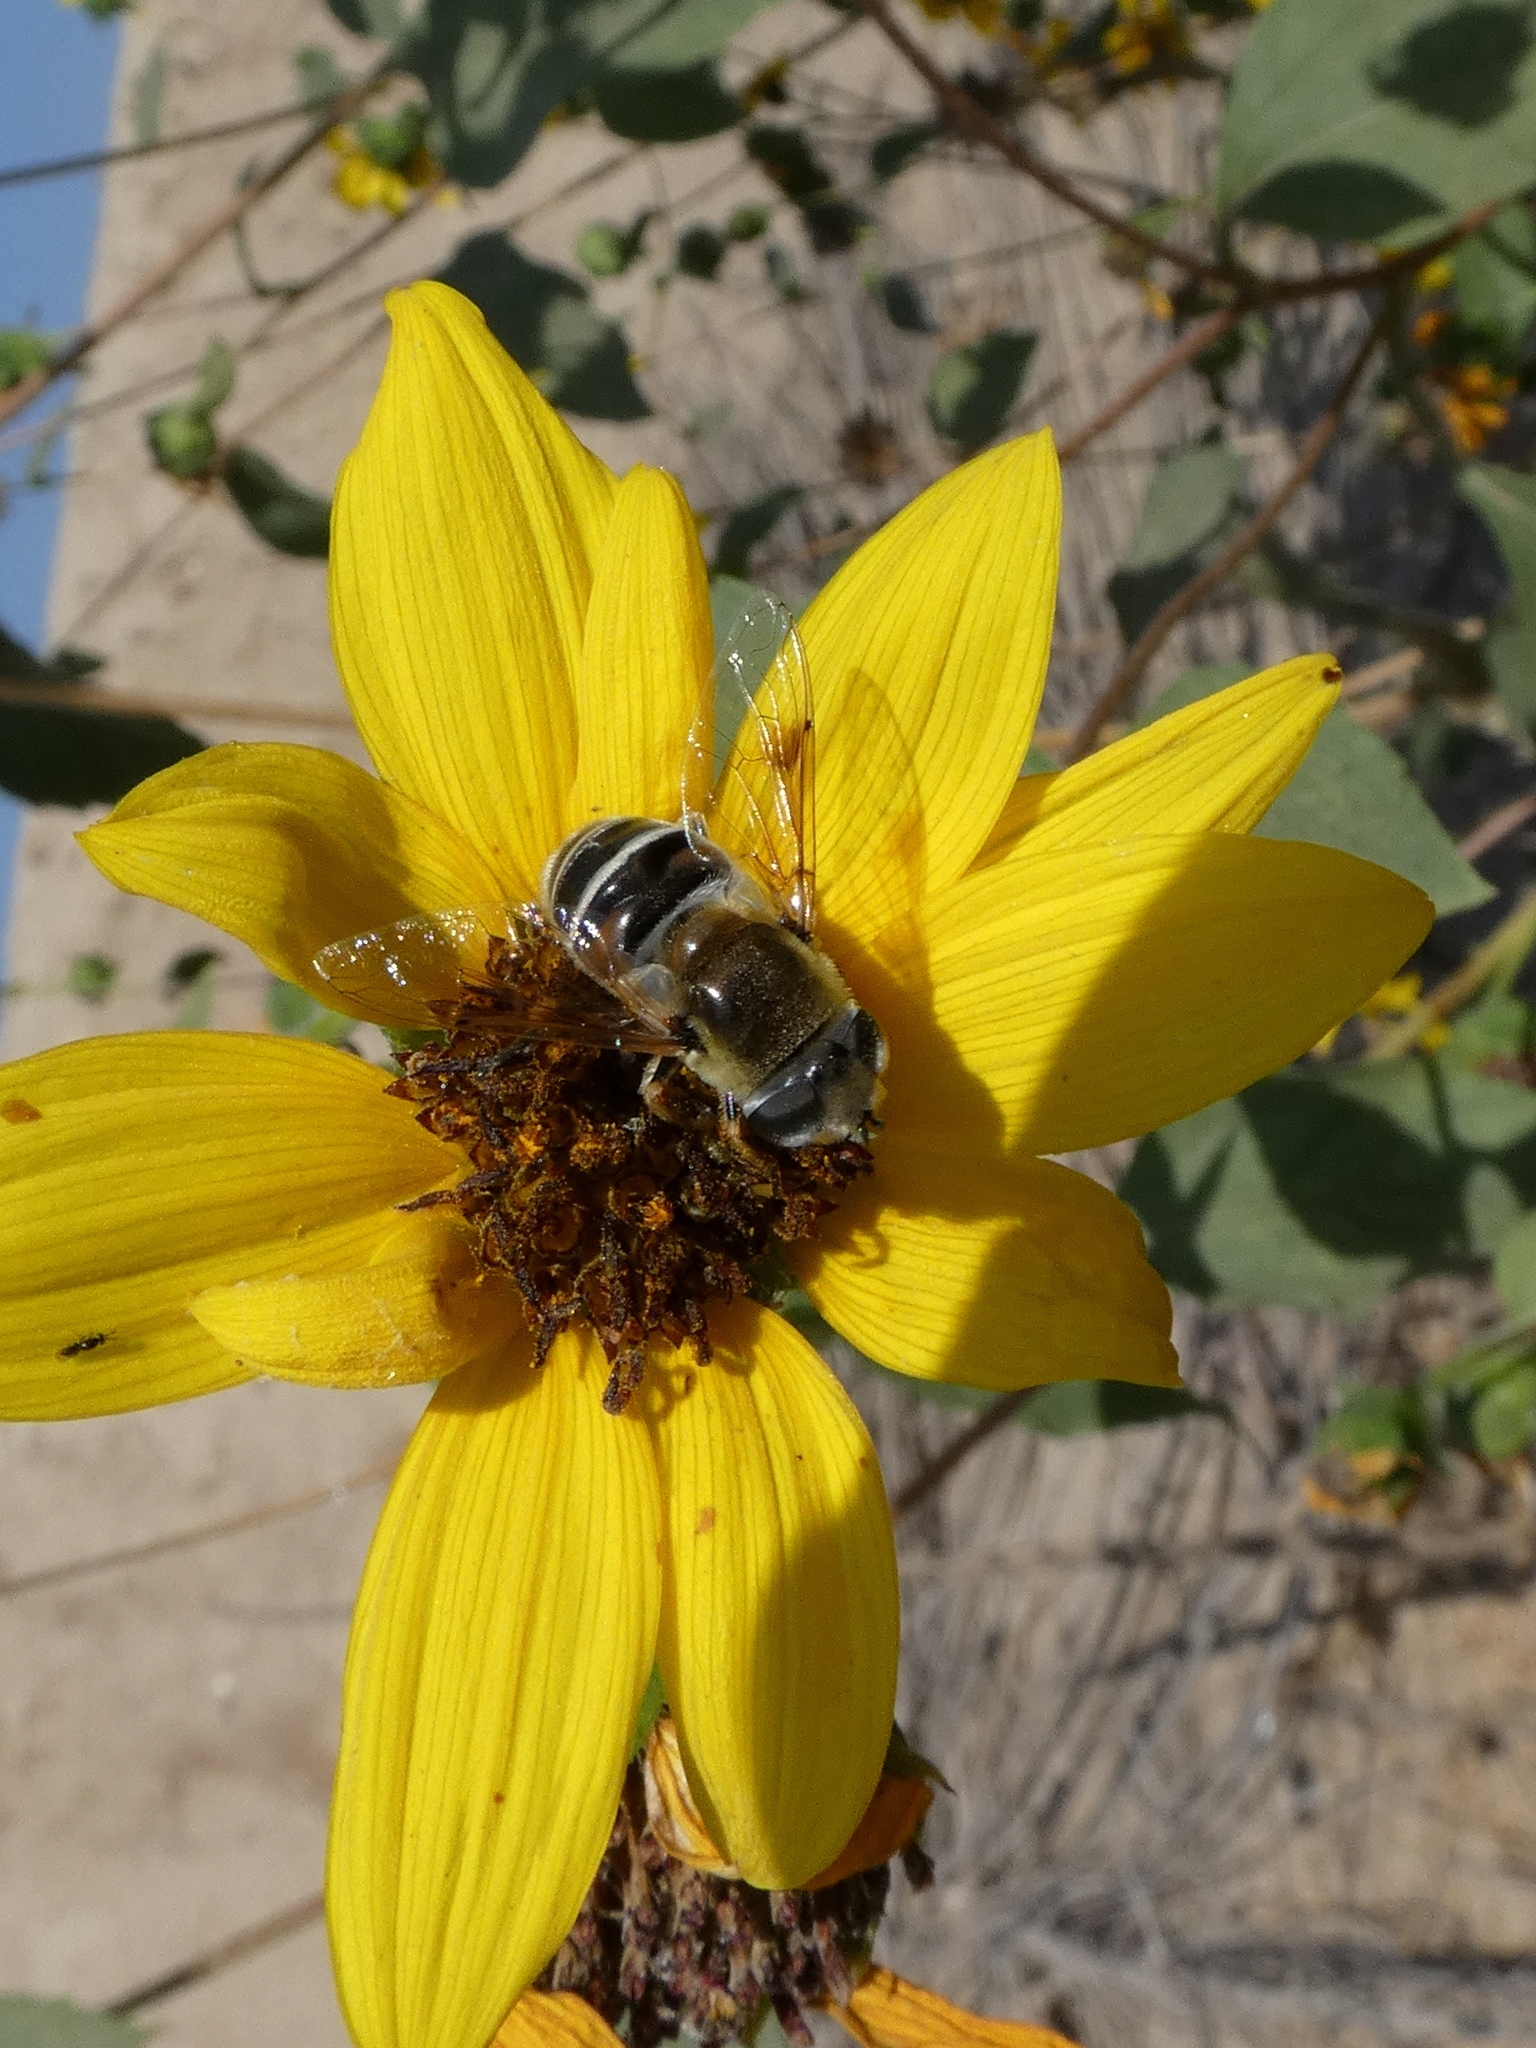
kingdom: Animalia
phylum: Arthropoda
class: Insecta
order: Diptera
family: Syrphidae
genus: Eristalis
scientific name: Eristalis stipator
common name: Yellow-shouldered drone fly
